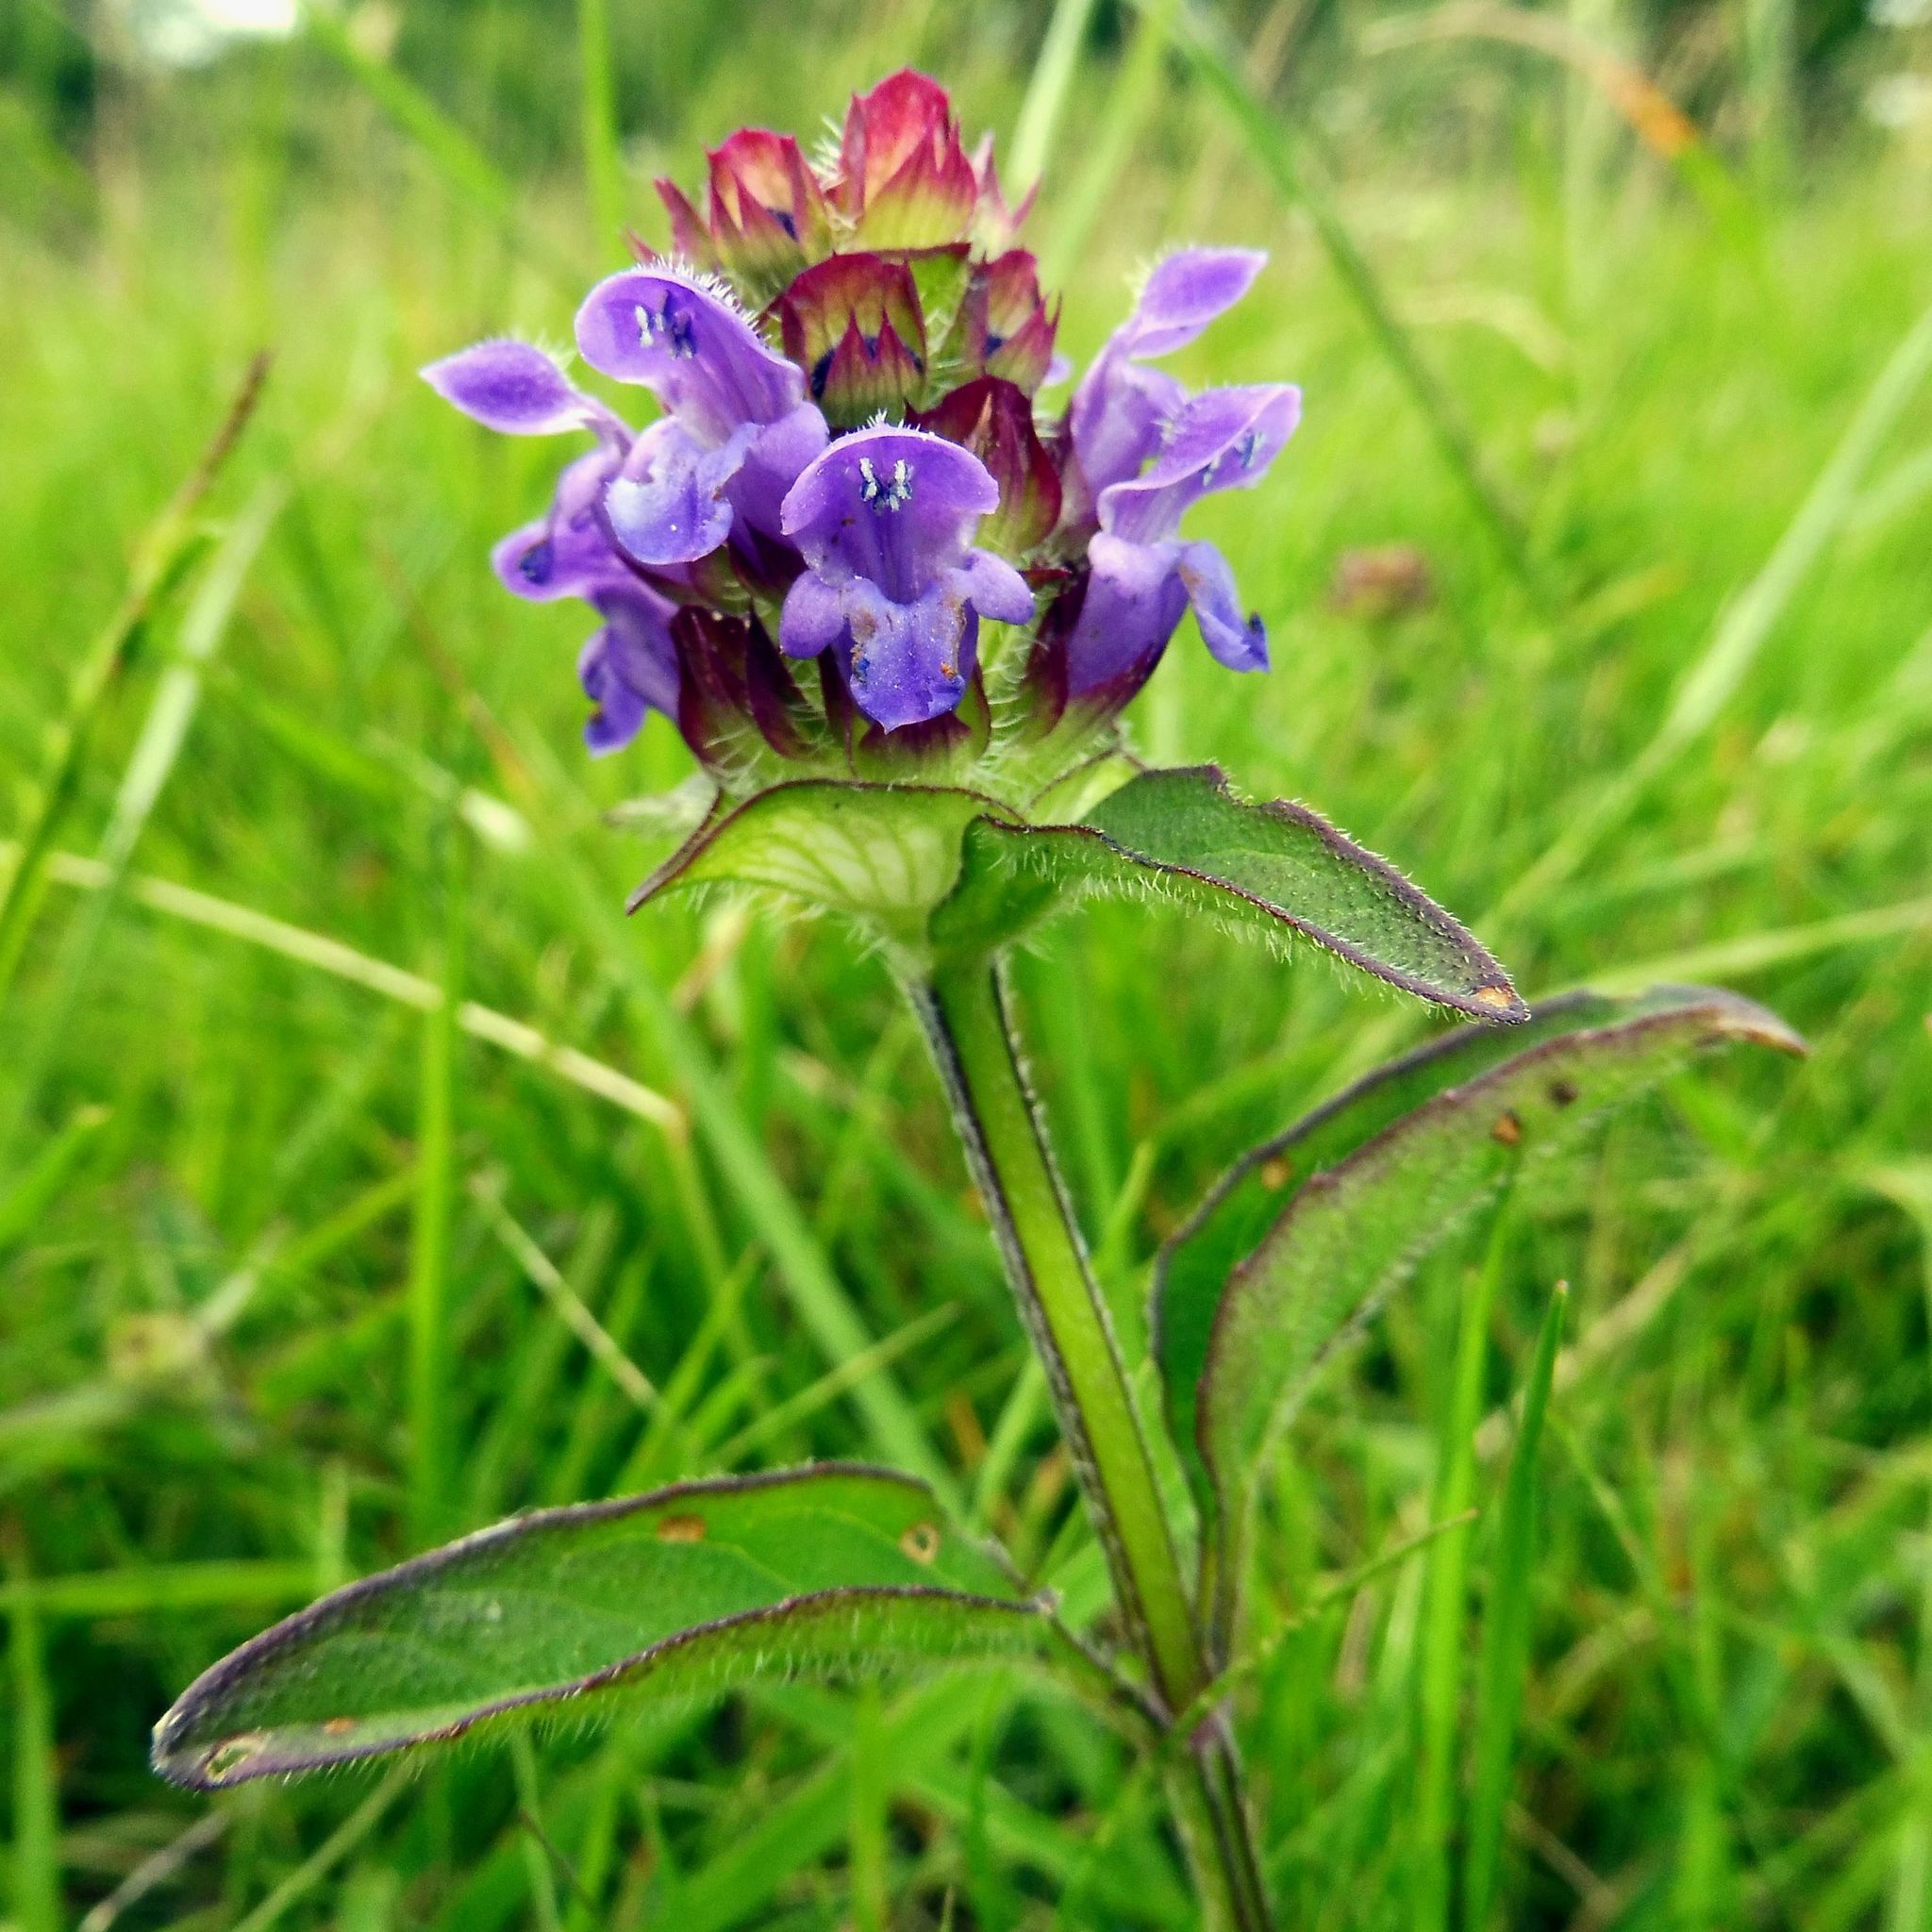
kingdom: Plantae
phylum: Tracheophyta
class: Magnoliopsida
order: Lamiales
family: Lamiaceae
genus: Prunella
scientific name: Prunella vulgaris
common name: Heal-all
